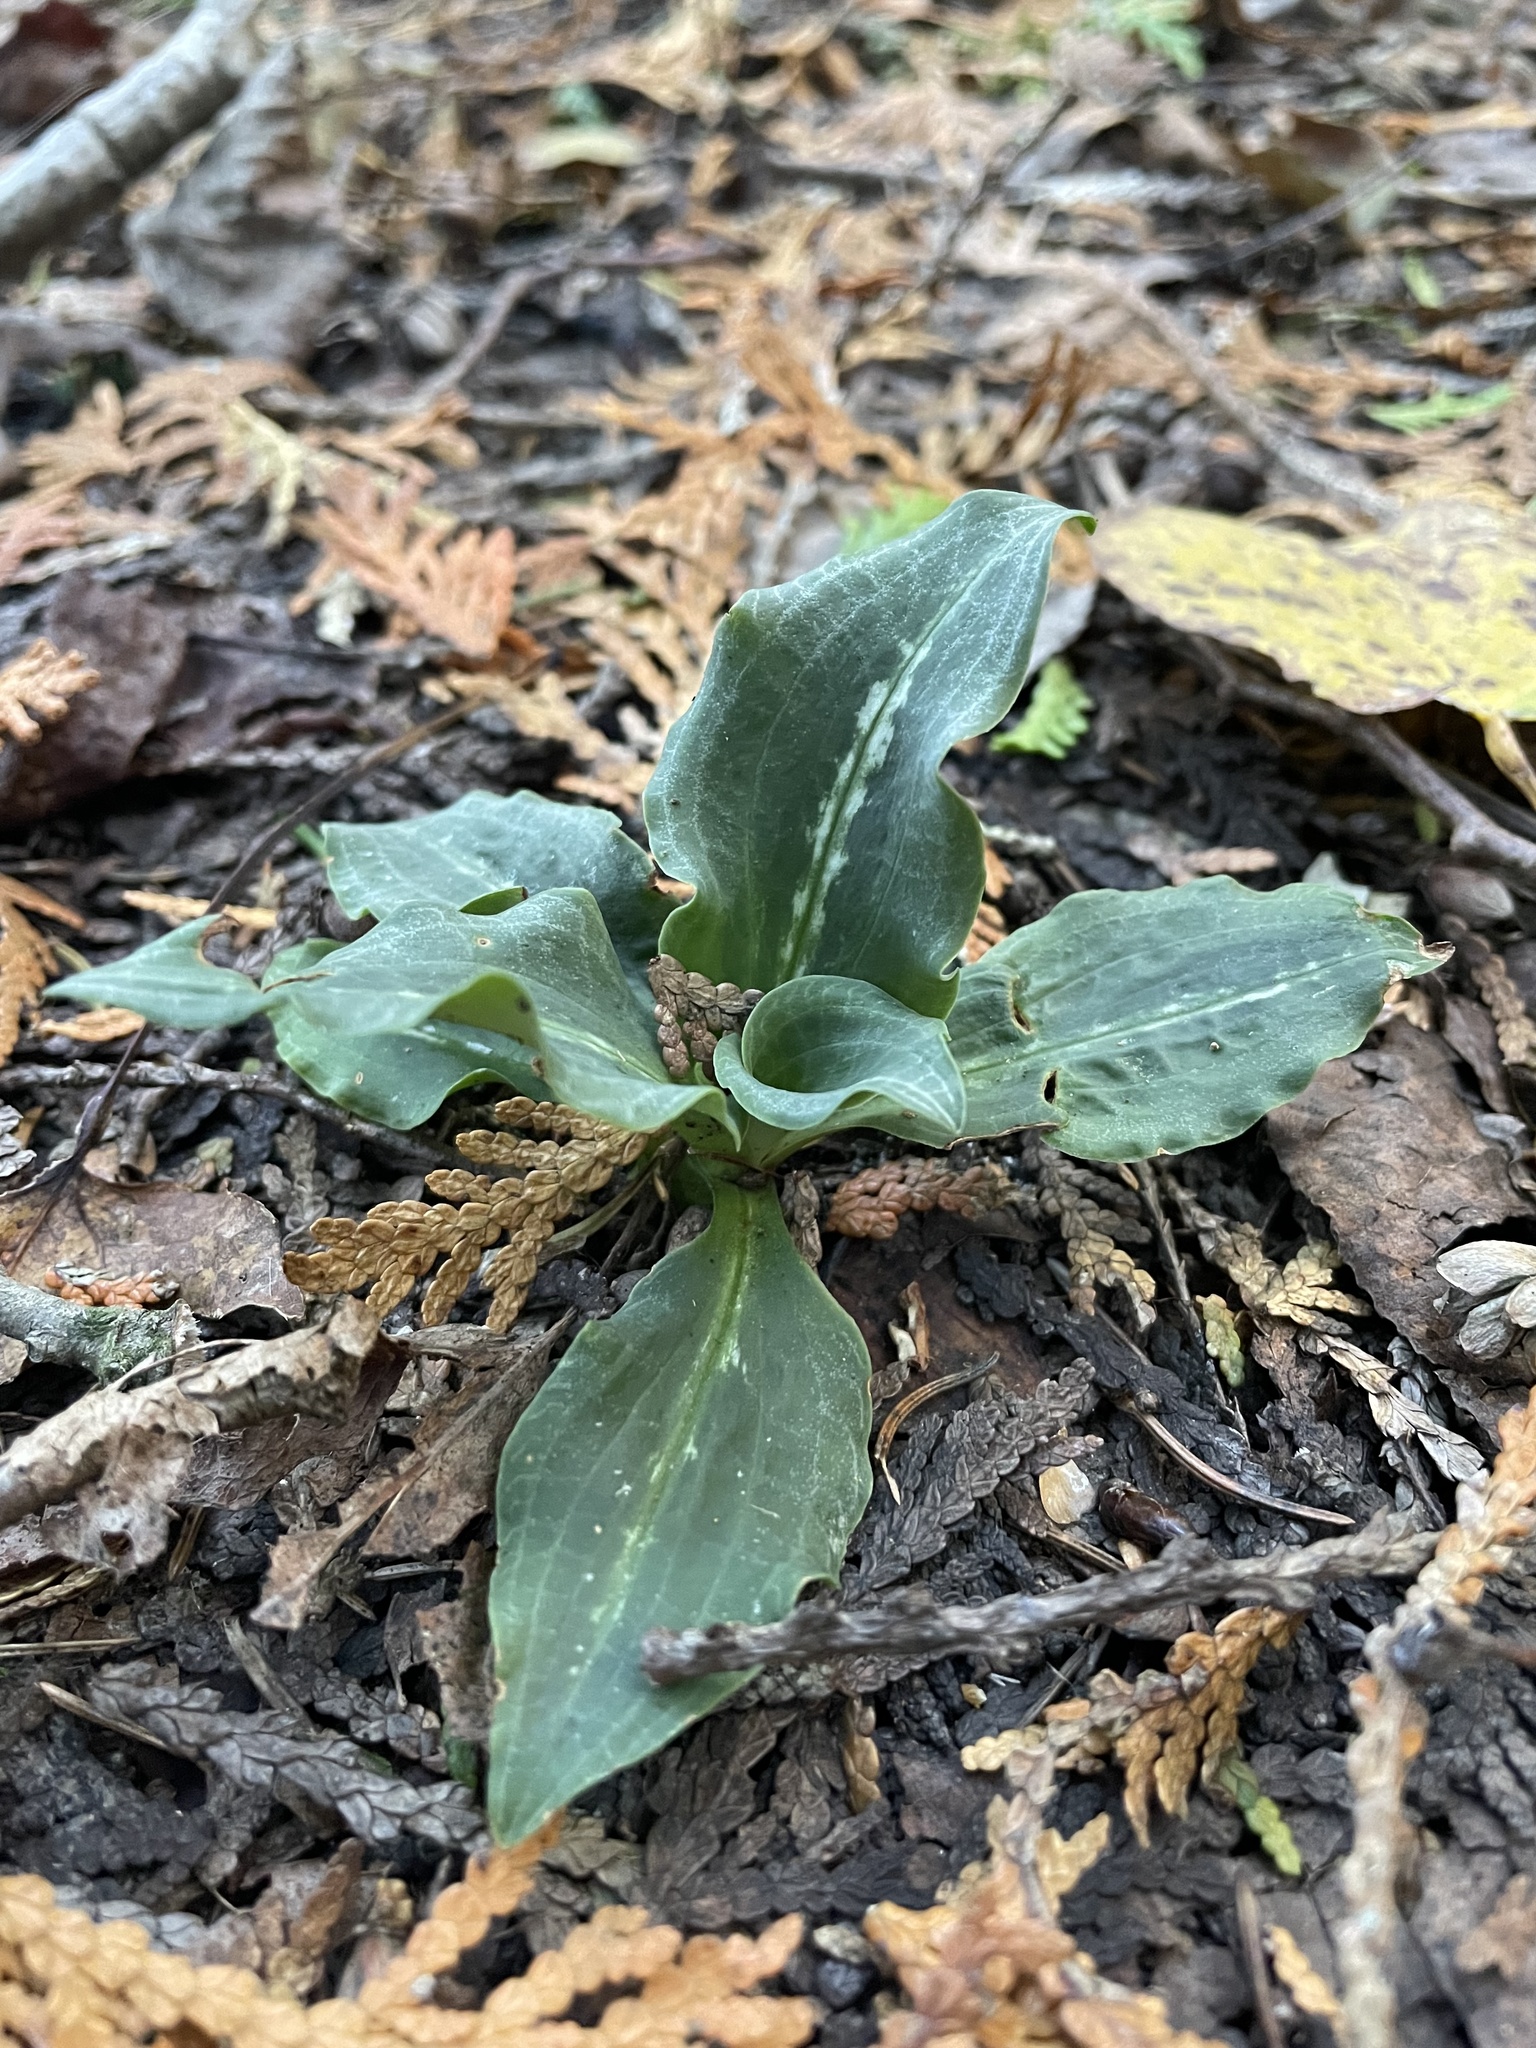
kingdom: Plantae
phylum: Tracheophyta
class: Liliopsida
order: Asparagales
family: Orchidaceae
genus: Goodyera
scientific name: Goodyera oblongifolia
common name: Giant rattlesnake-plantain
